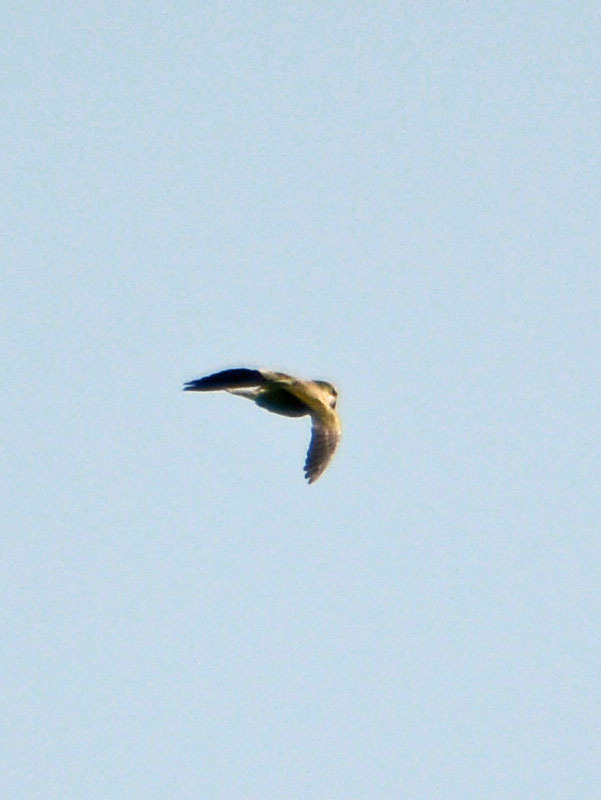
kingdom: Animalia
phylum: Chordata
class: Aves
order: Psittaciformes
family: Psittacidae
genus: Myiopsitta
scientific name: Myiopsitta monachus
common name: Monk parakeet
